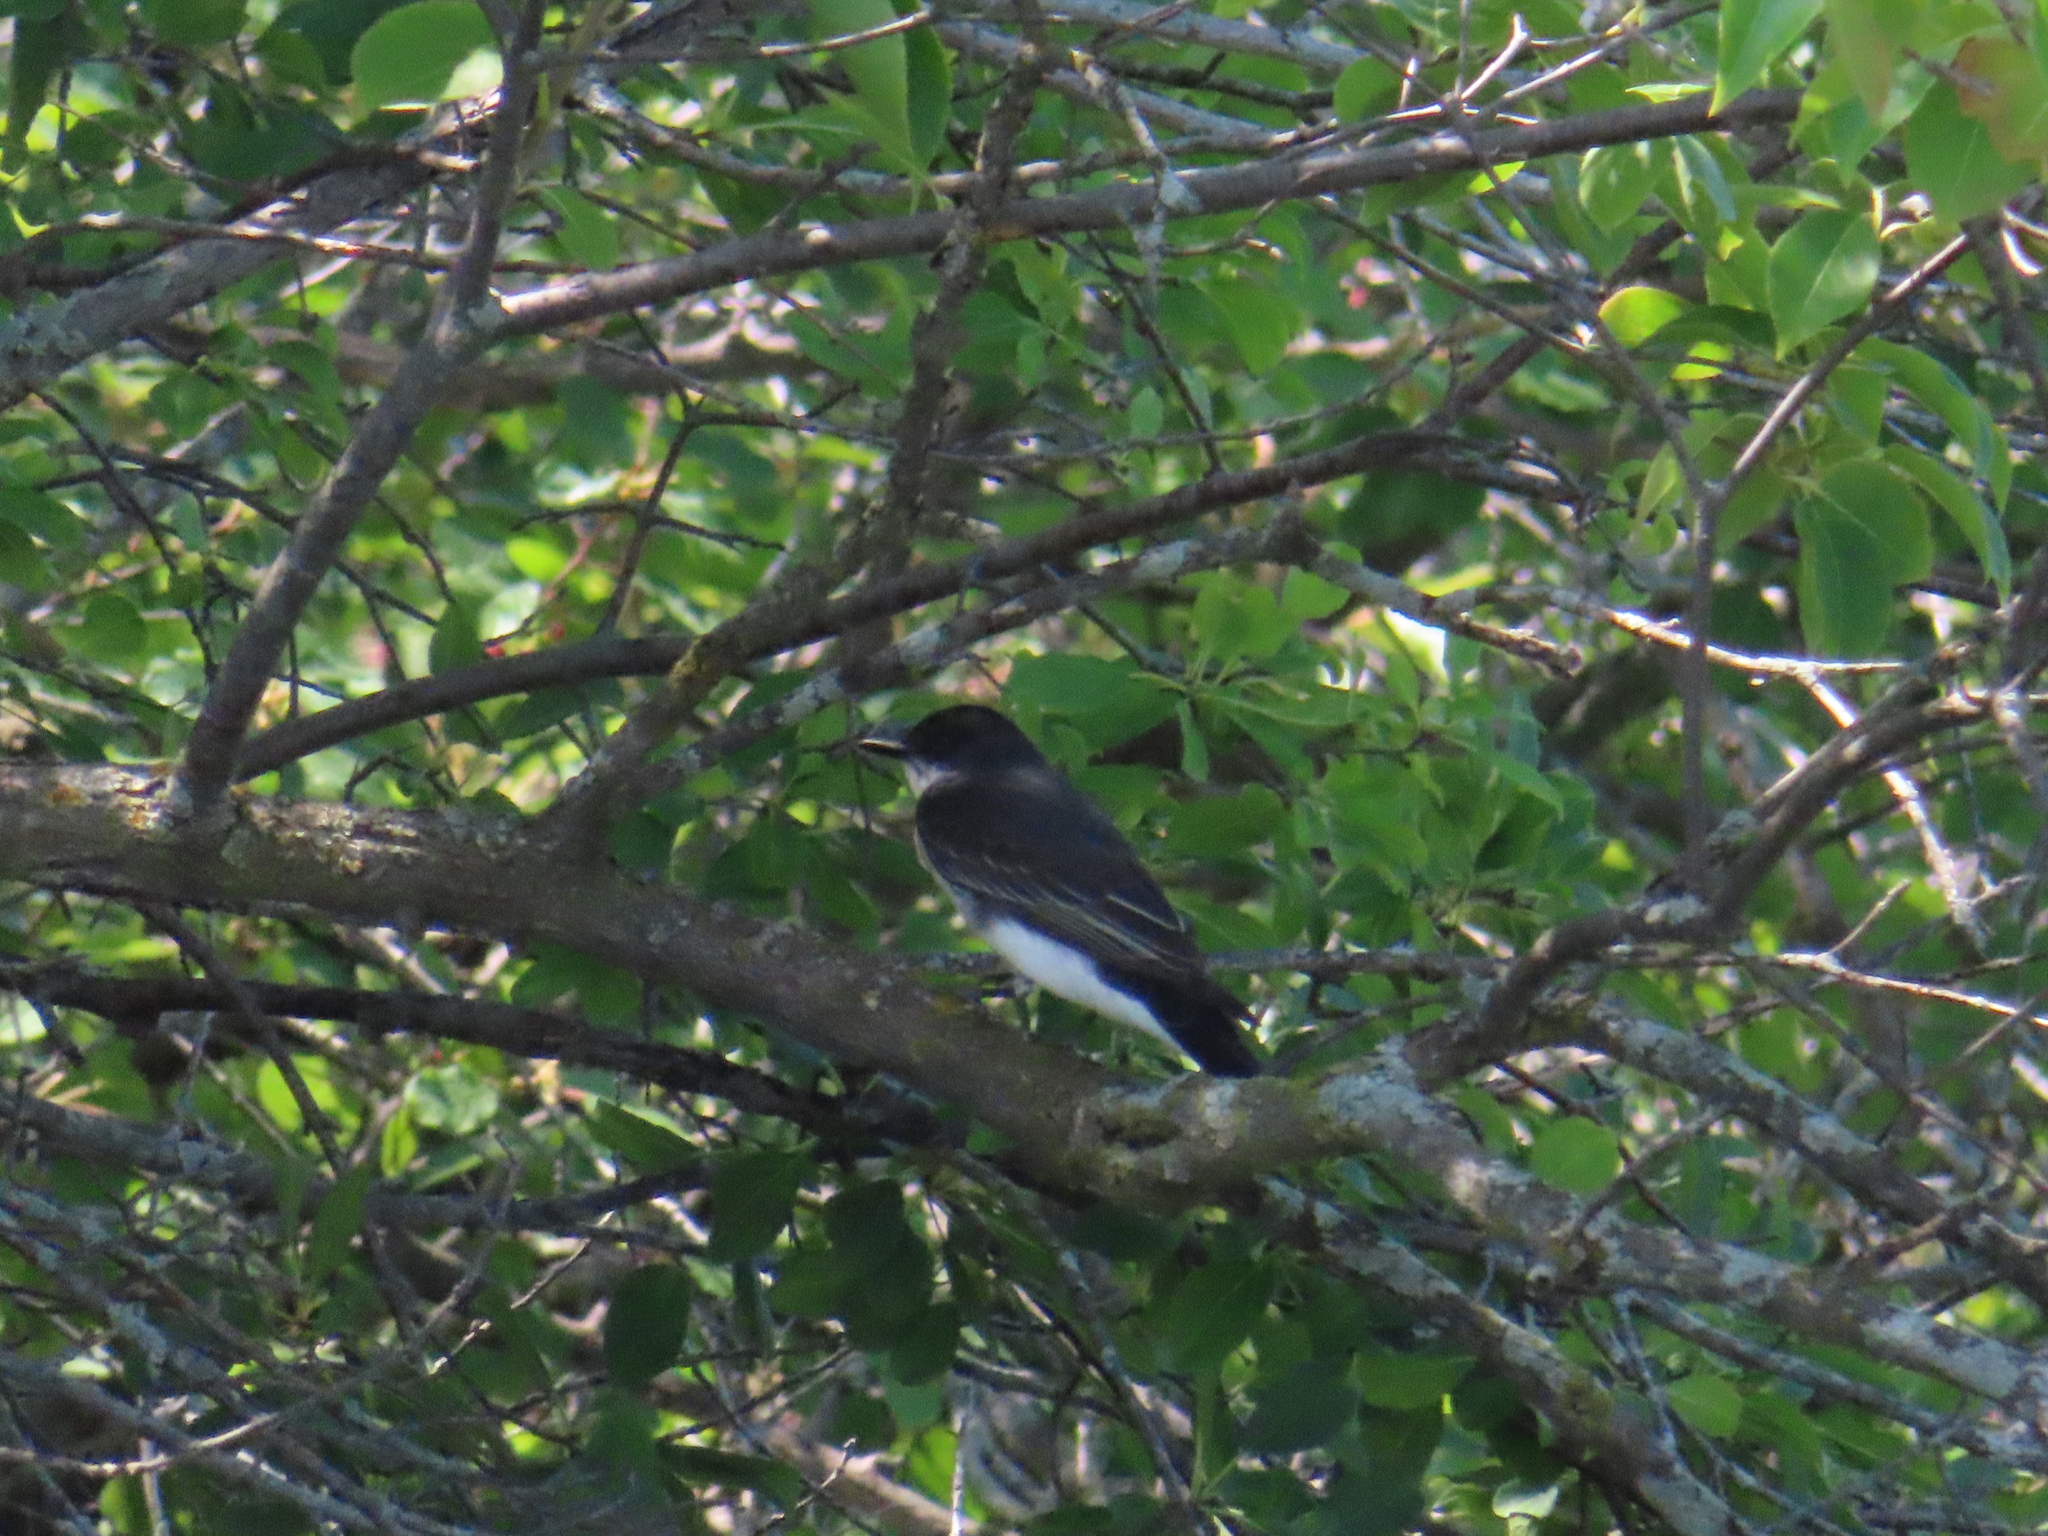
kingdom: Animalia
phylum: Chordata
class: Aves
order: Passeriformes
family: Tyrannidae
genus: Tyrannus
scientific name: Tyrannus tyrannus
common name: Eastern kingbird
